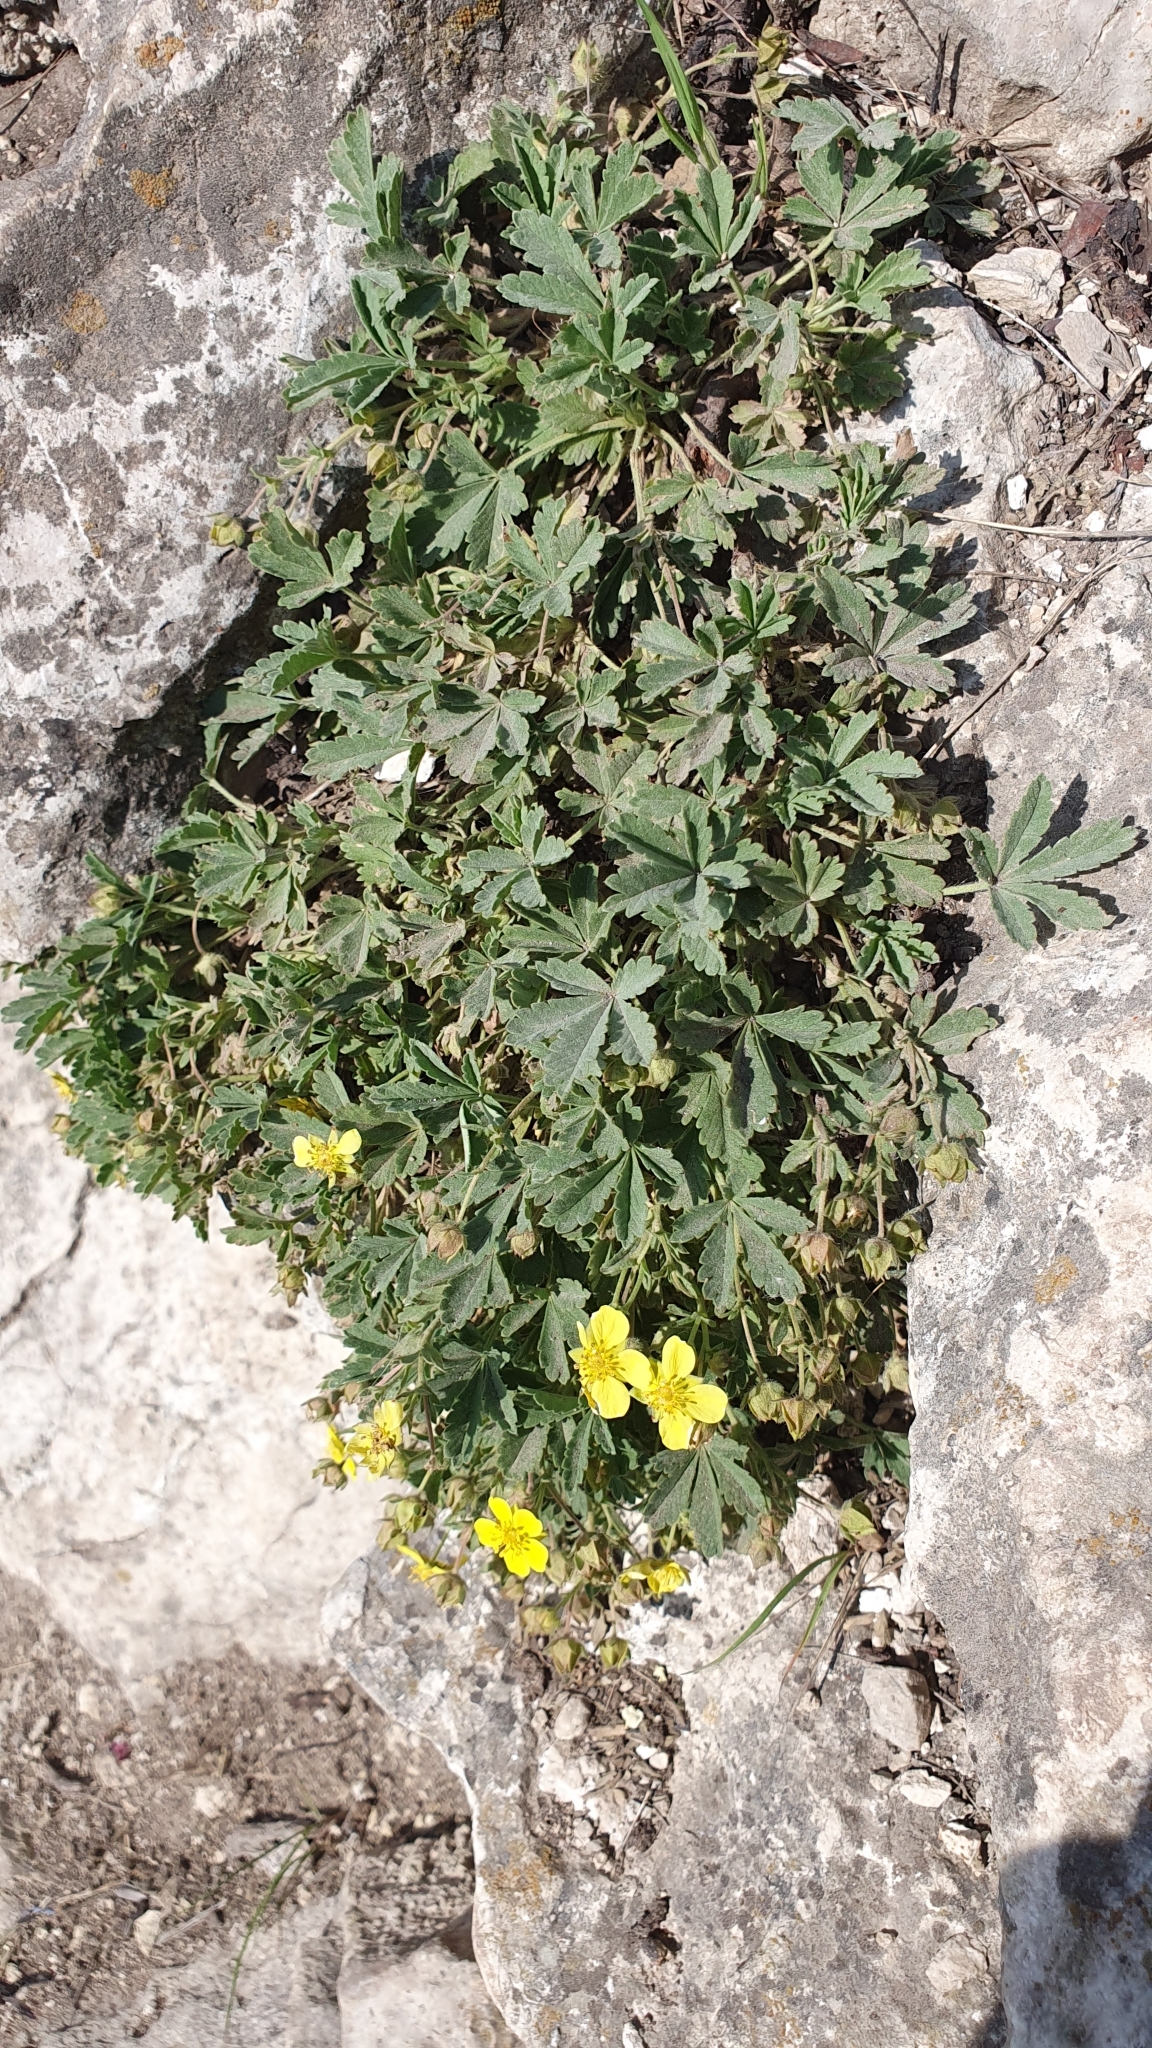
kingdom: Plantae
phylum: Tracheophyta
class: Magnoliopsida
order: Rosales
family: Rosaceae
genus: Potentilla
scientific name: Potentilla incana
